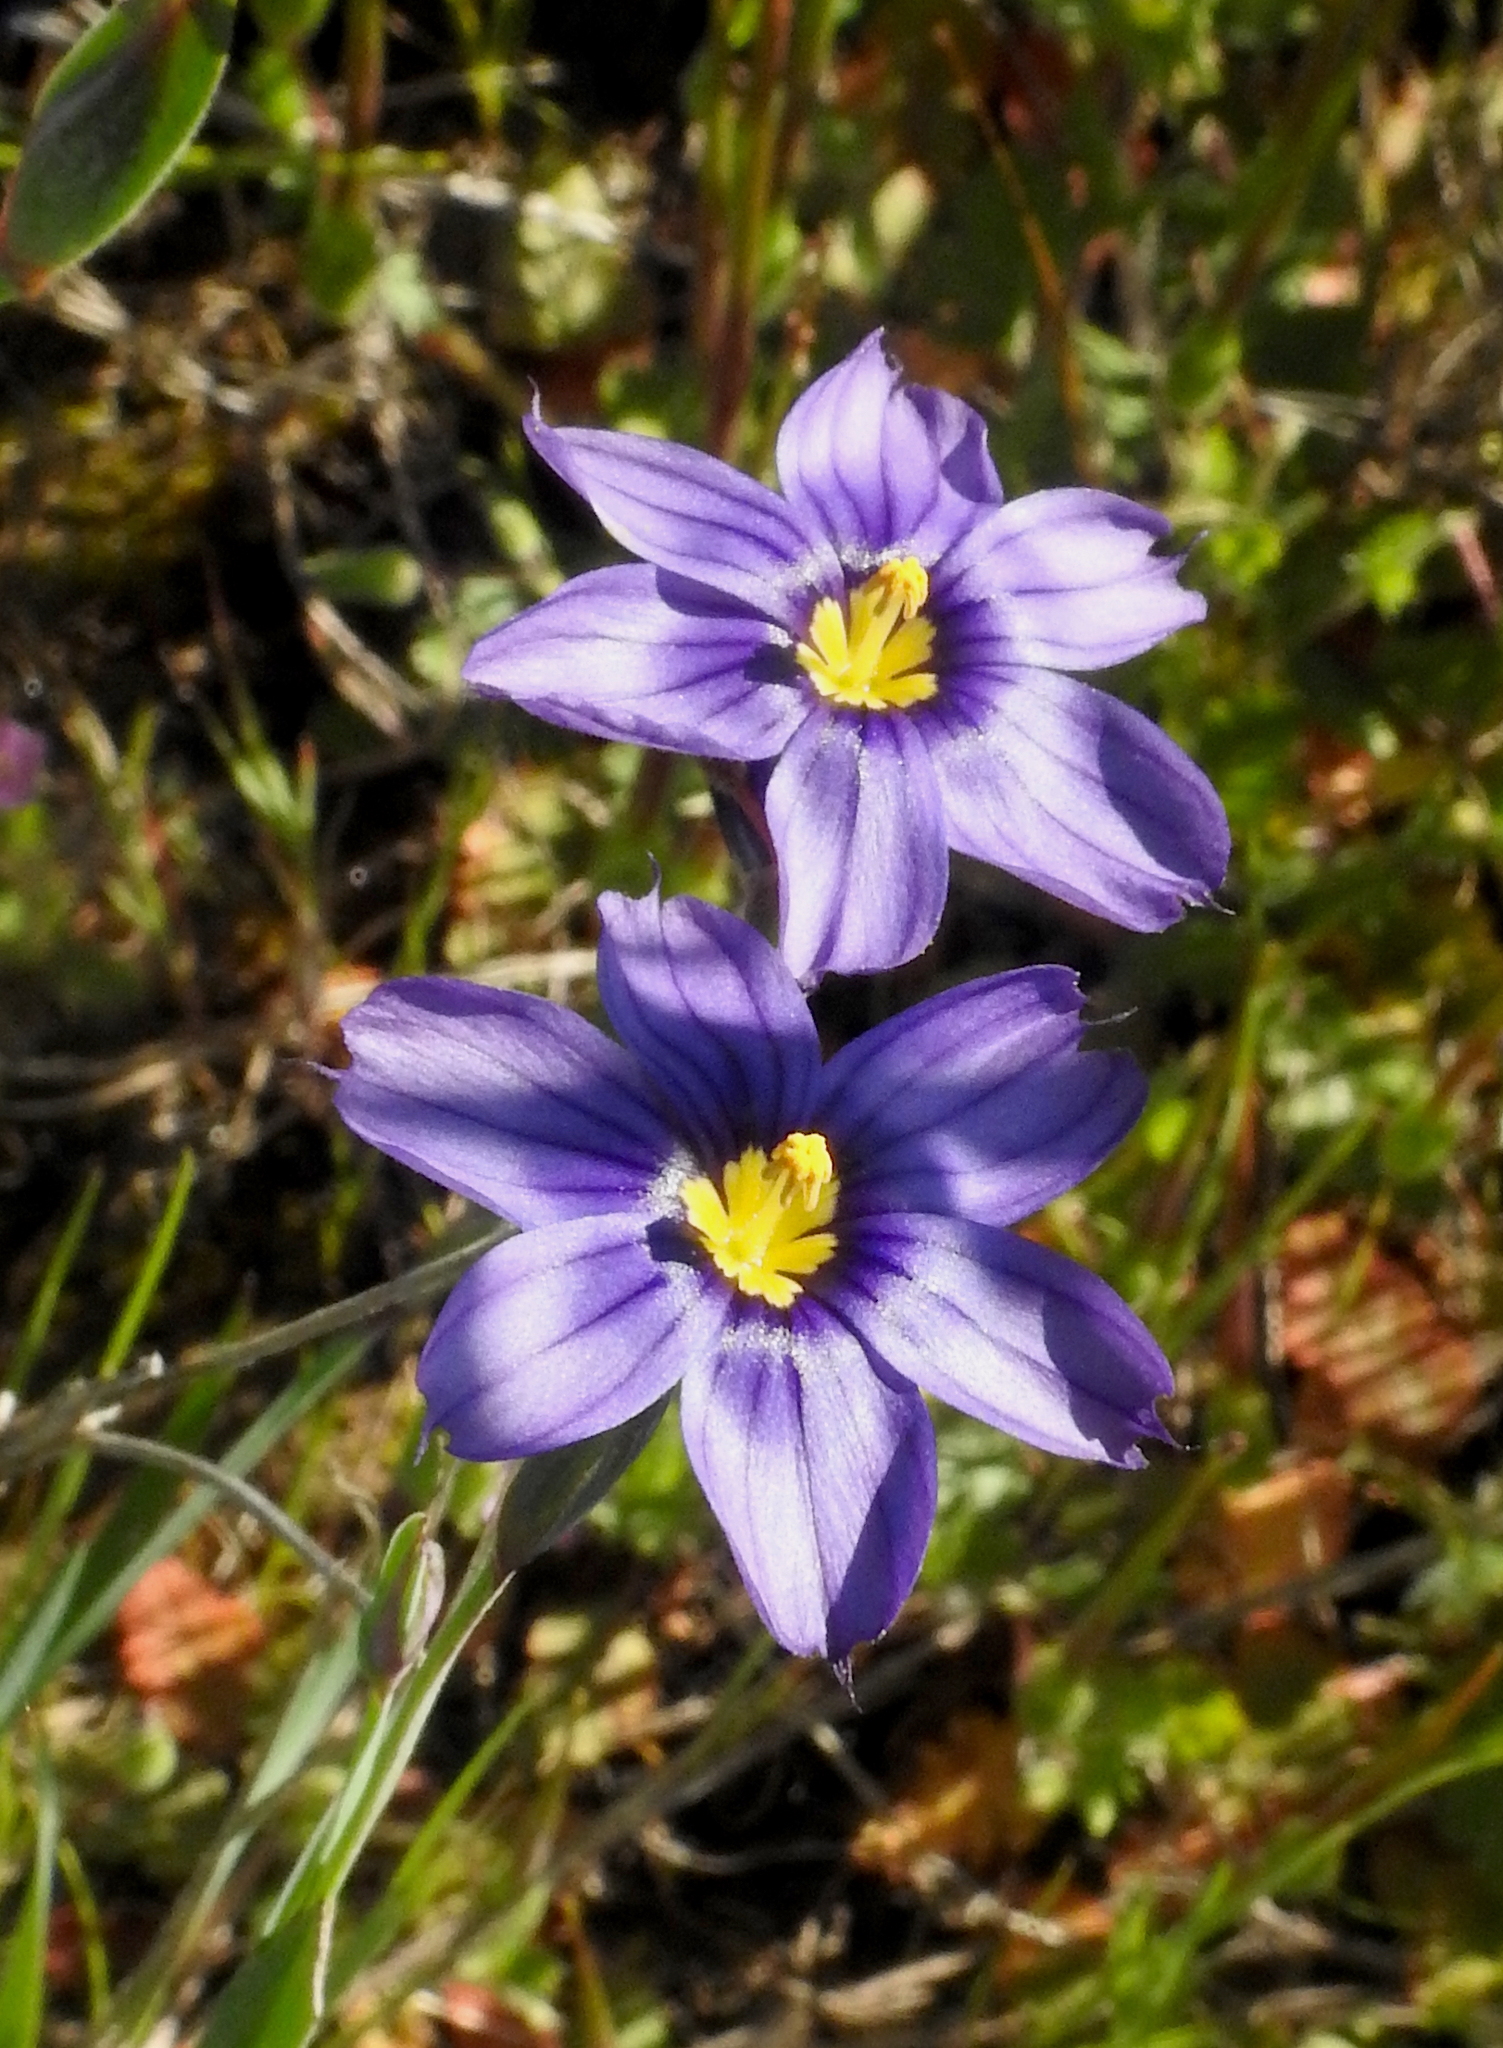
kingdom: Plantae
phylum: Tracheophyta
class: Liliopsida
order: Asparagales
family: Iridaceae
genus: Sisyrinchium
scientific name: Sisyrinchium bellum
